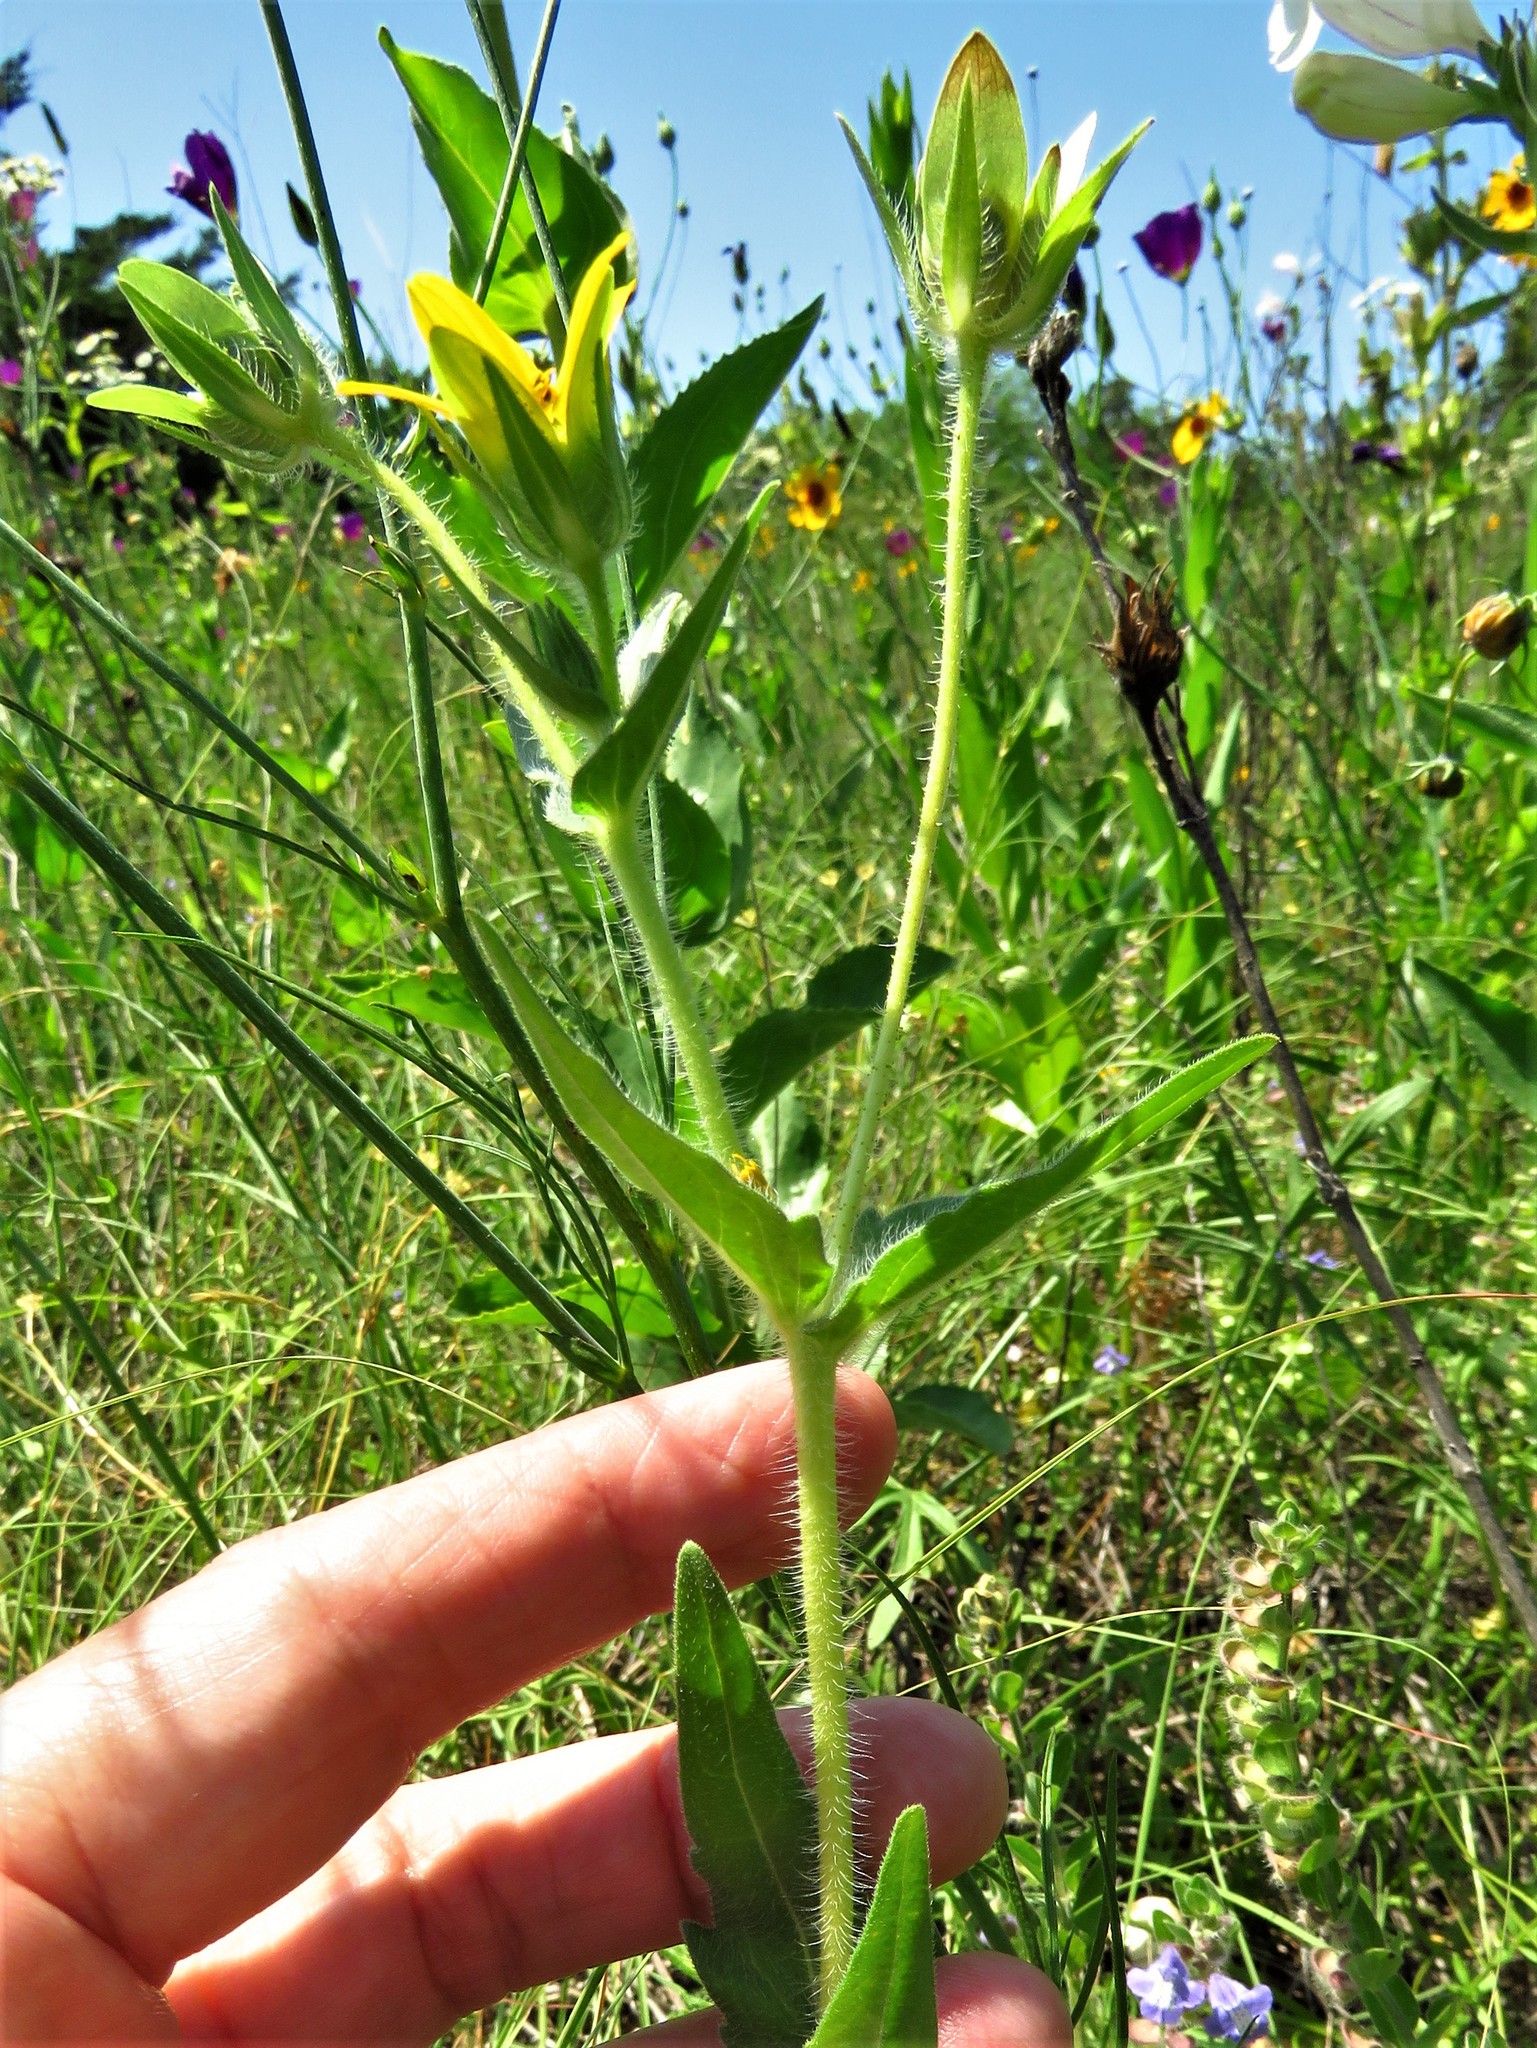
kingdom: Plantae
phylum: Tracheophyta
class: Magnoliopsida
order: Asterales
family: Asteraceae
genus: Lindheimera
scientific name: Lindheimera texana
